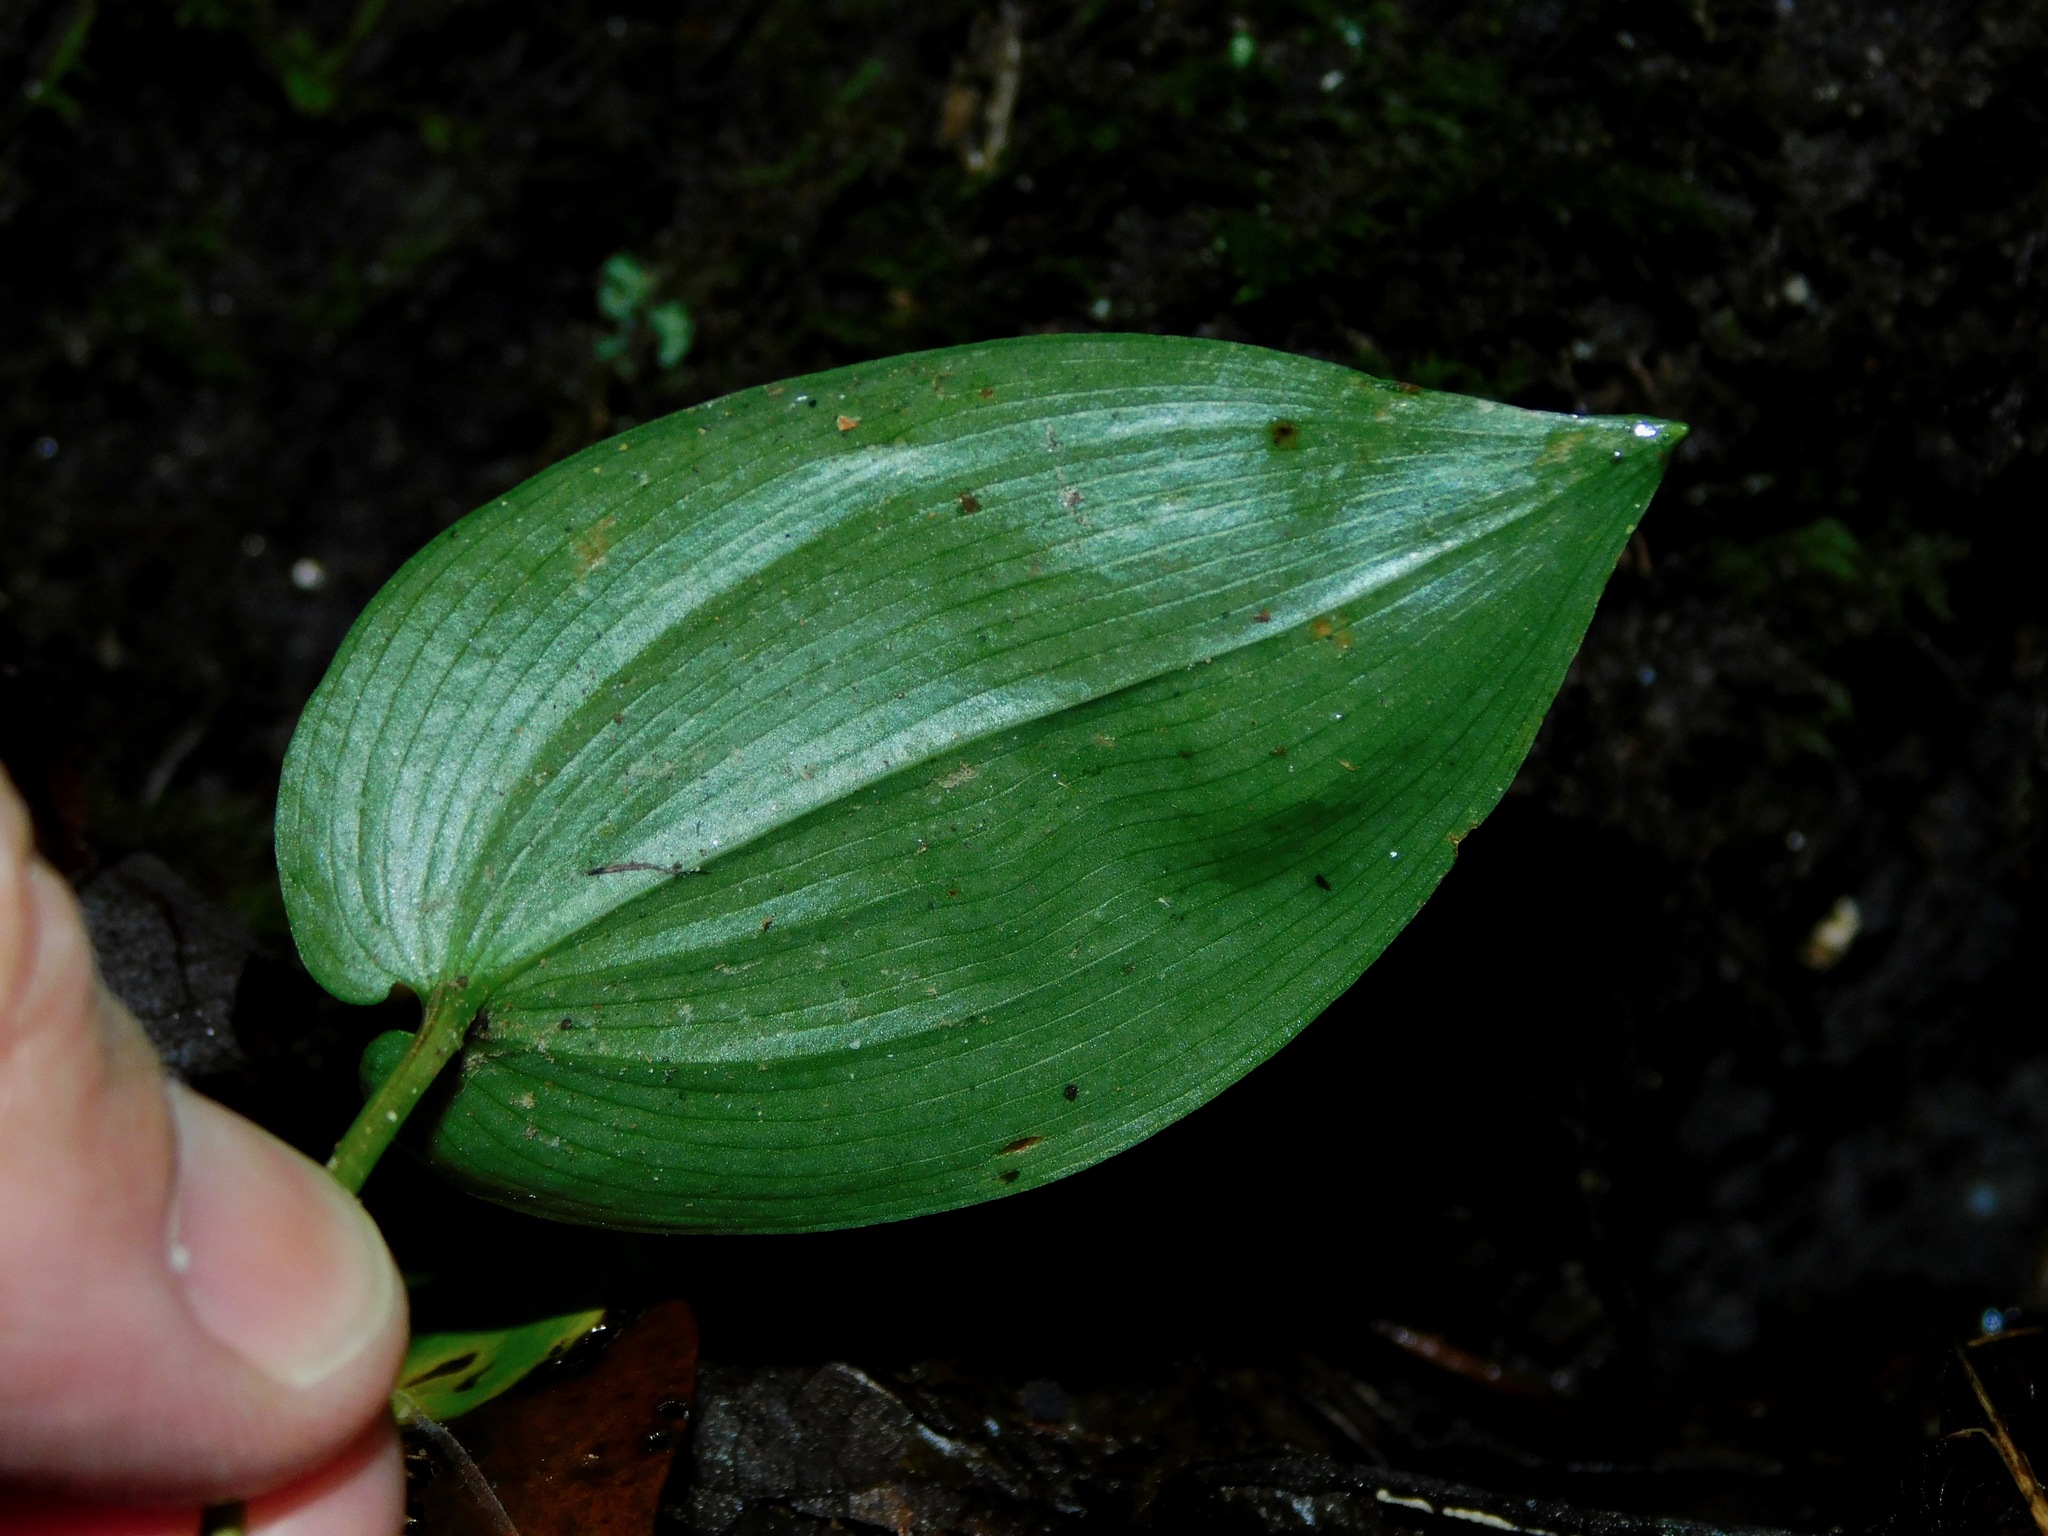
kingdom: Plantae
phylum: Tracheophyta
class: Liliopsida
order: Asparagales
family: Asparagaceae
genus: Maianthemum
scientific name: Maianthemum canadense
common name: False lily-of-the-valley
